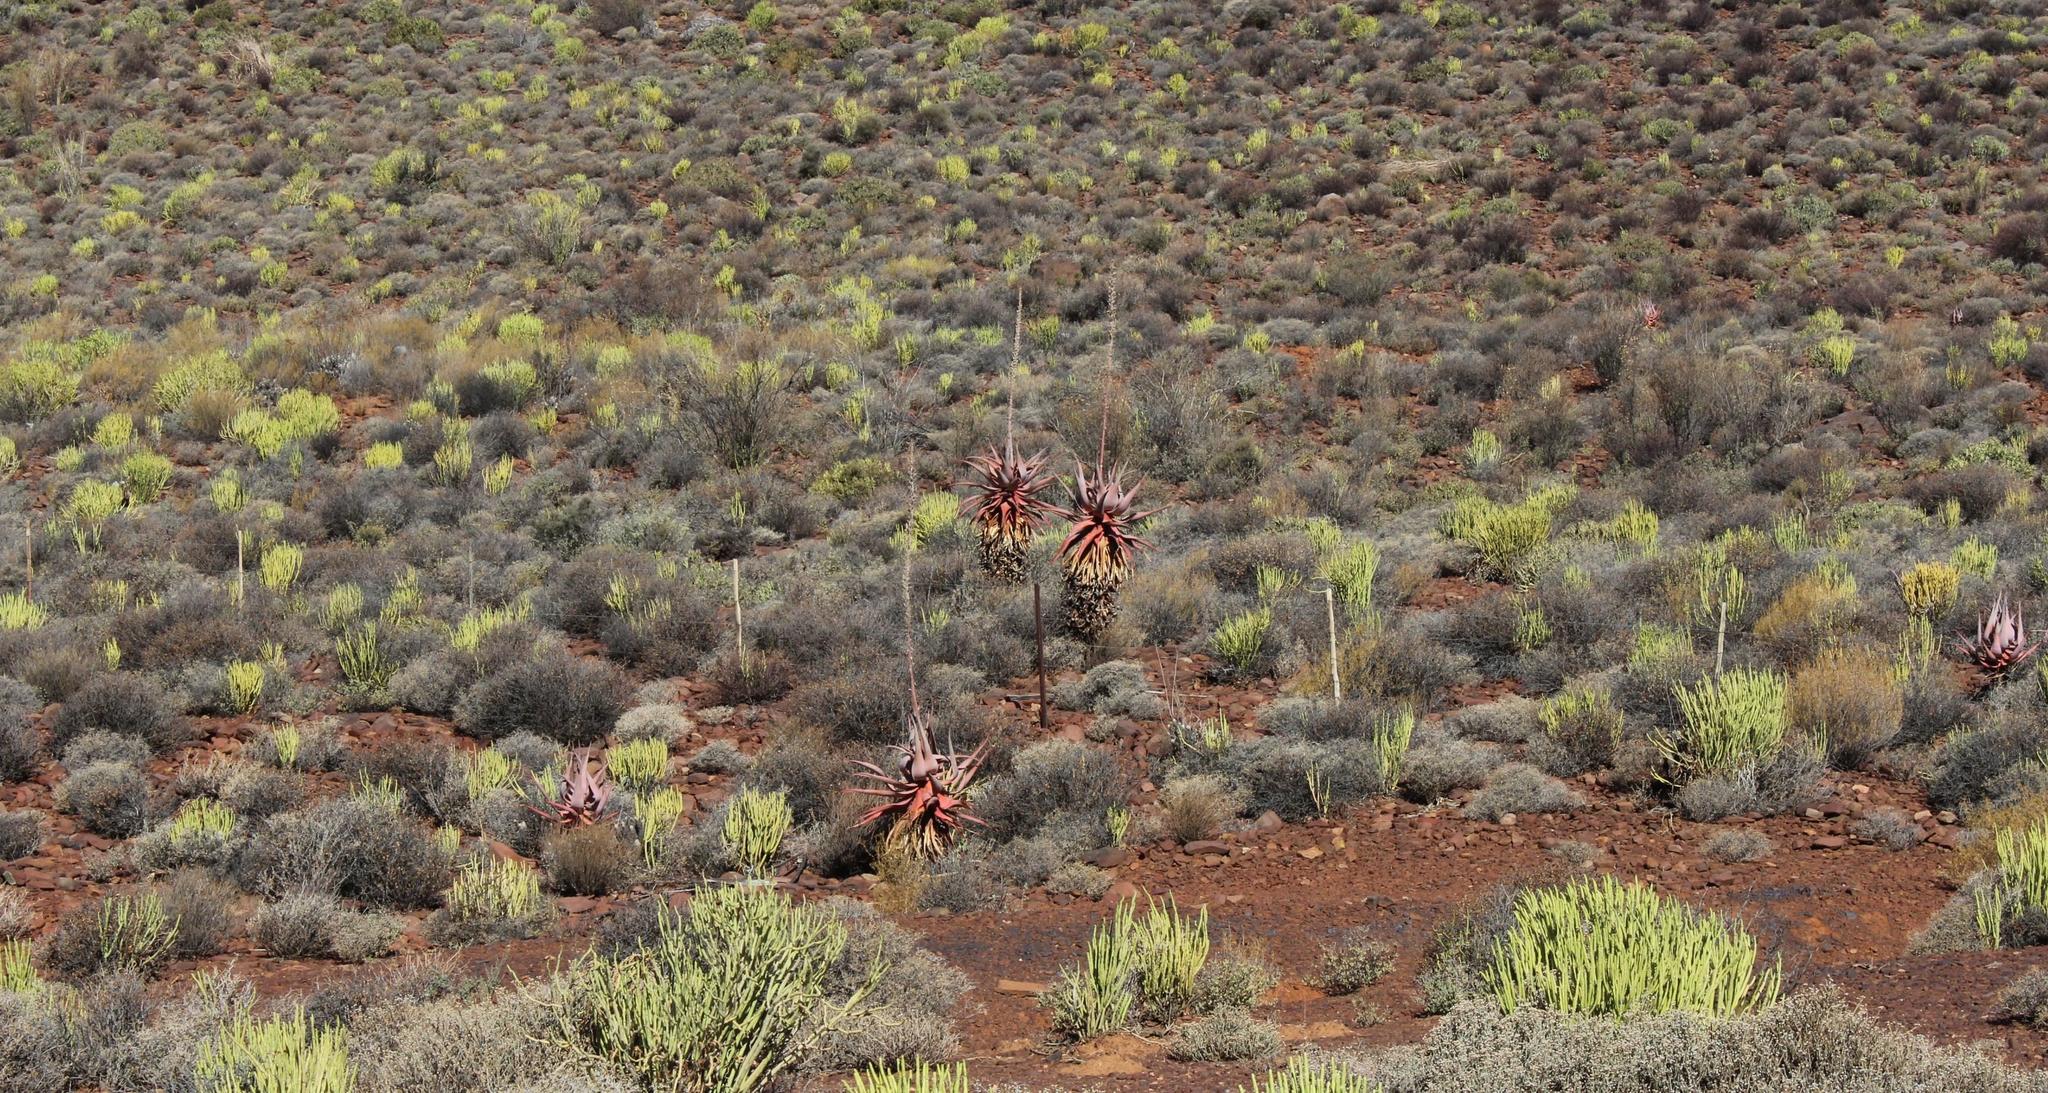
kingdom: Plantae
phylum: Tracheophyta
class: Magnoliopsida
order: Malpighiales
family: Euphorbiaceae
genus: Euphorbia
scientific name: Euphorbia mauritanica
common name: Jackal's-food
